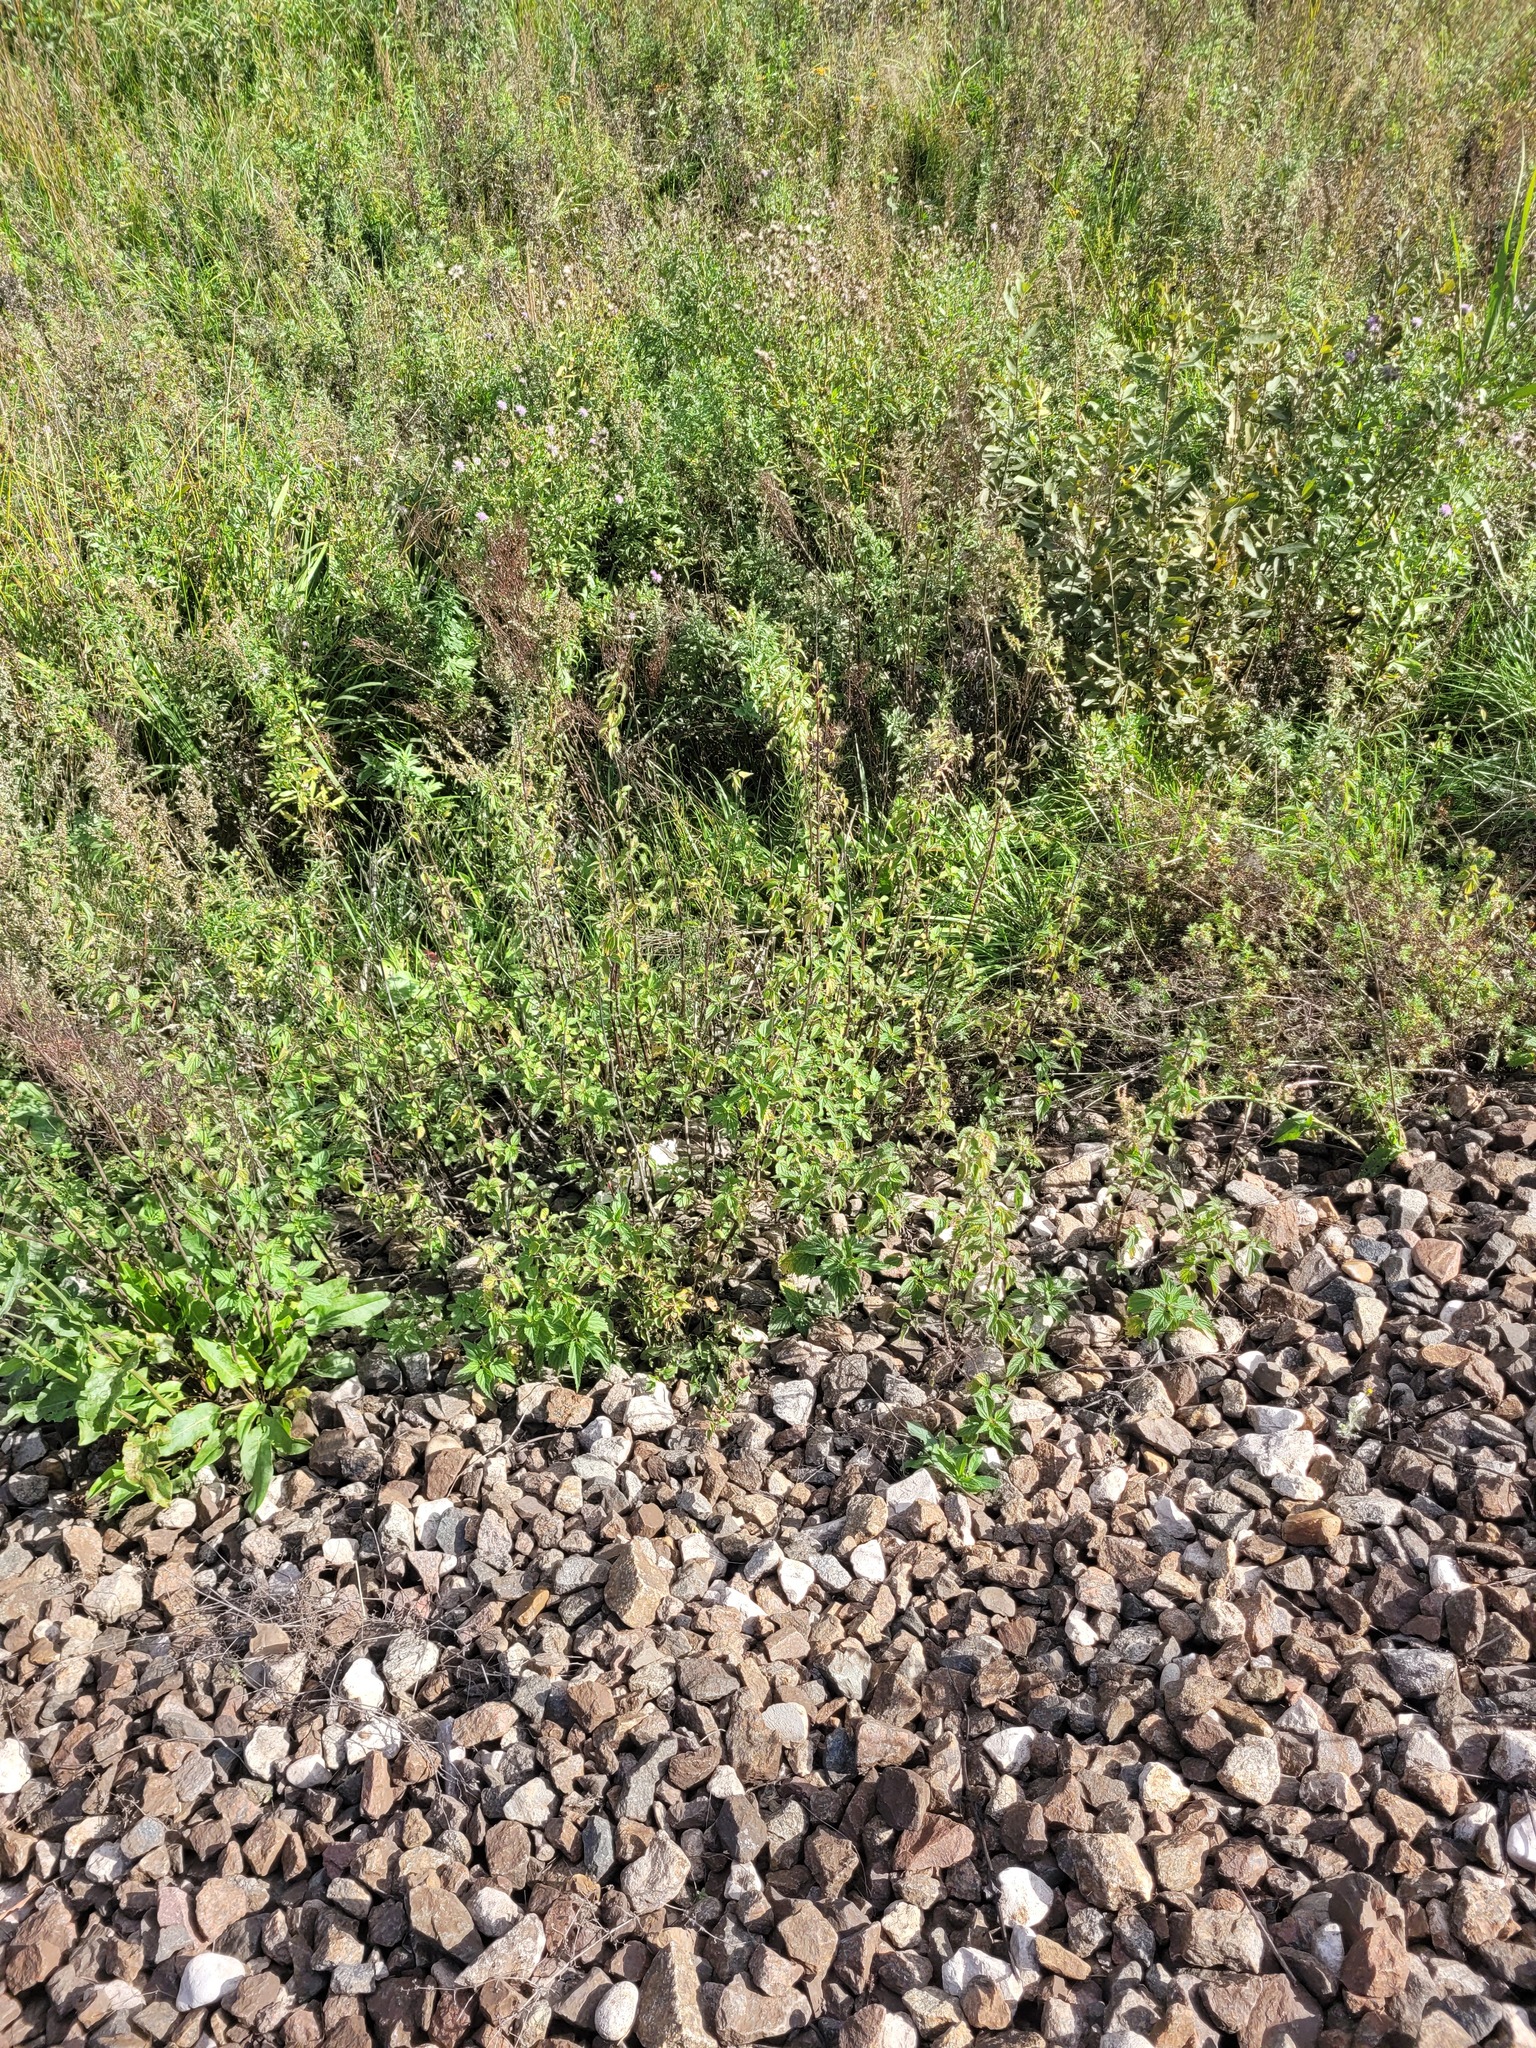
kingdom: Plantae
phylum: Tracheophyta
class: Magnoliopsida
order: Rosales
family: Urticaceae
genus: Urtica
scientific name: Urtica dioica
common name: Common nettle
